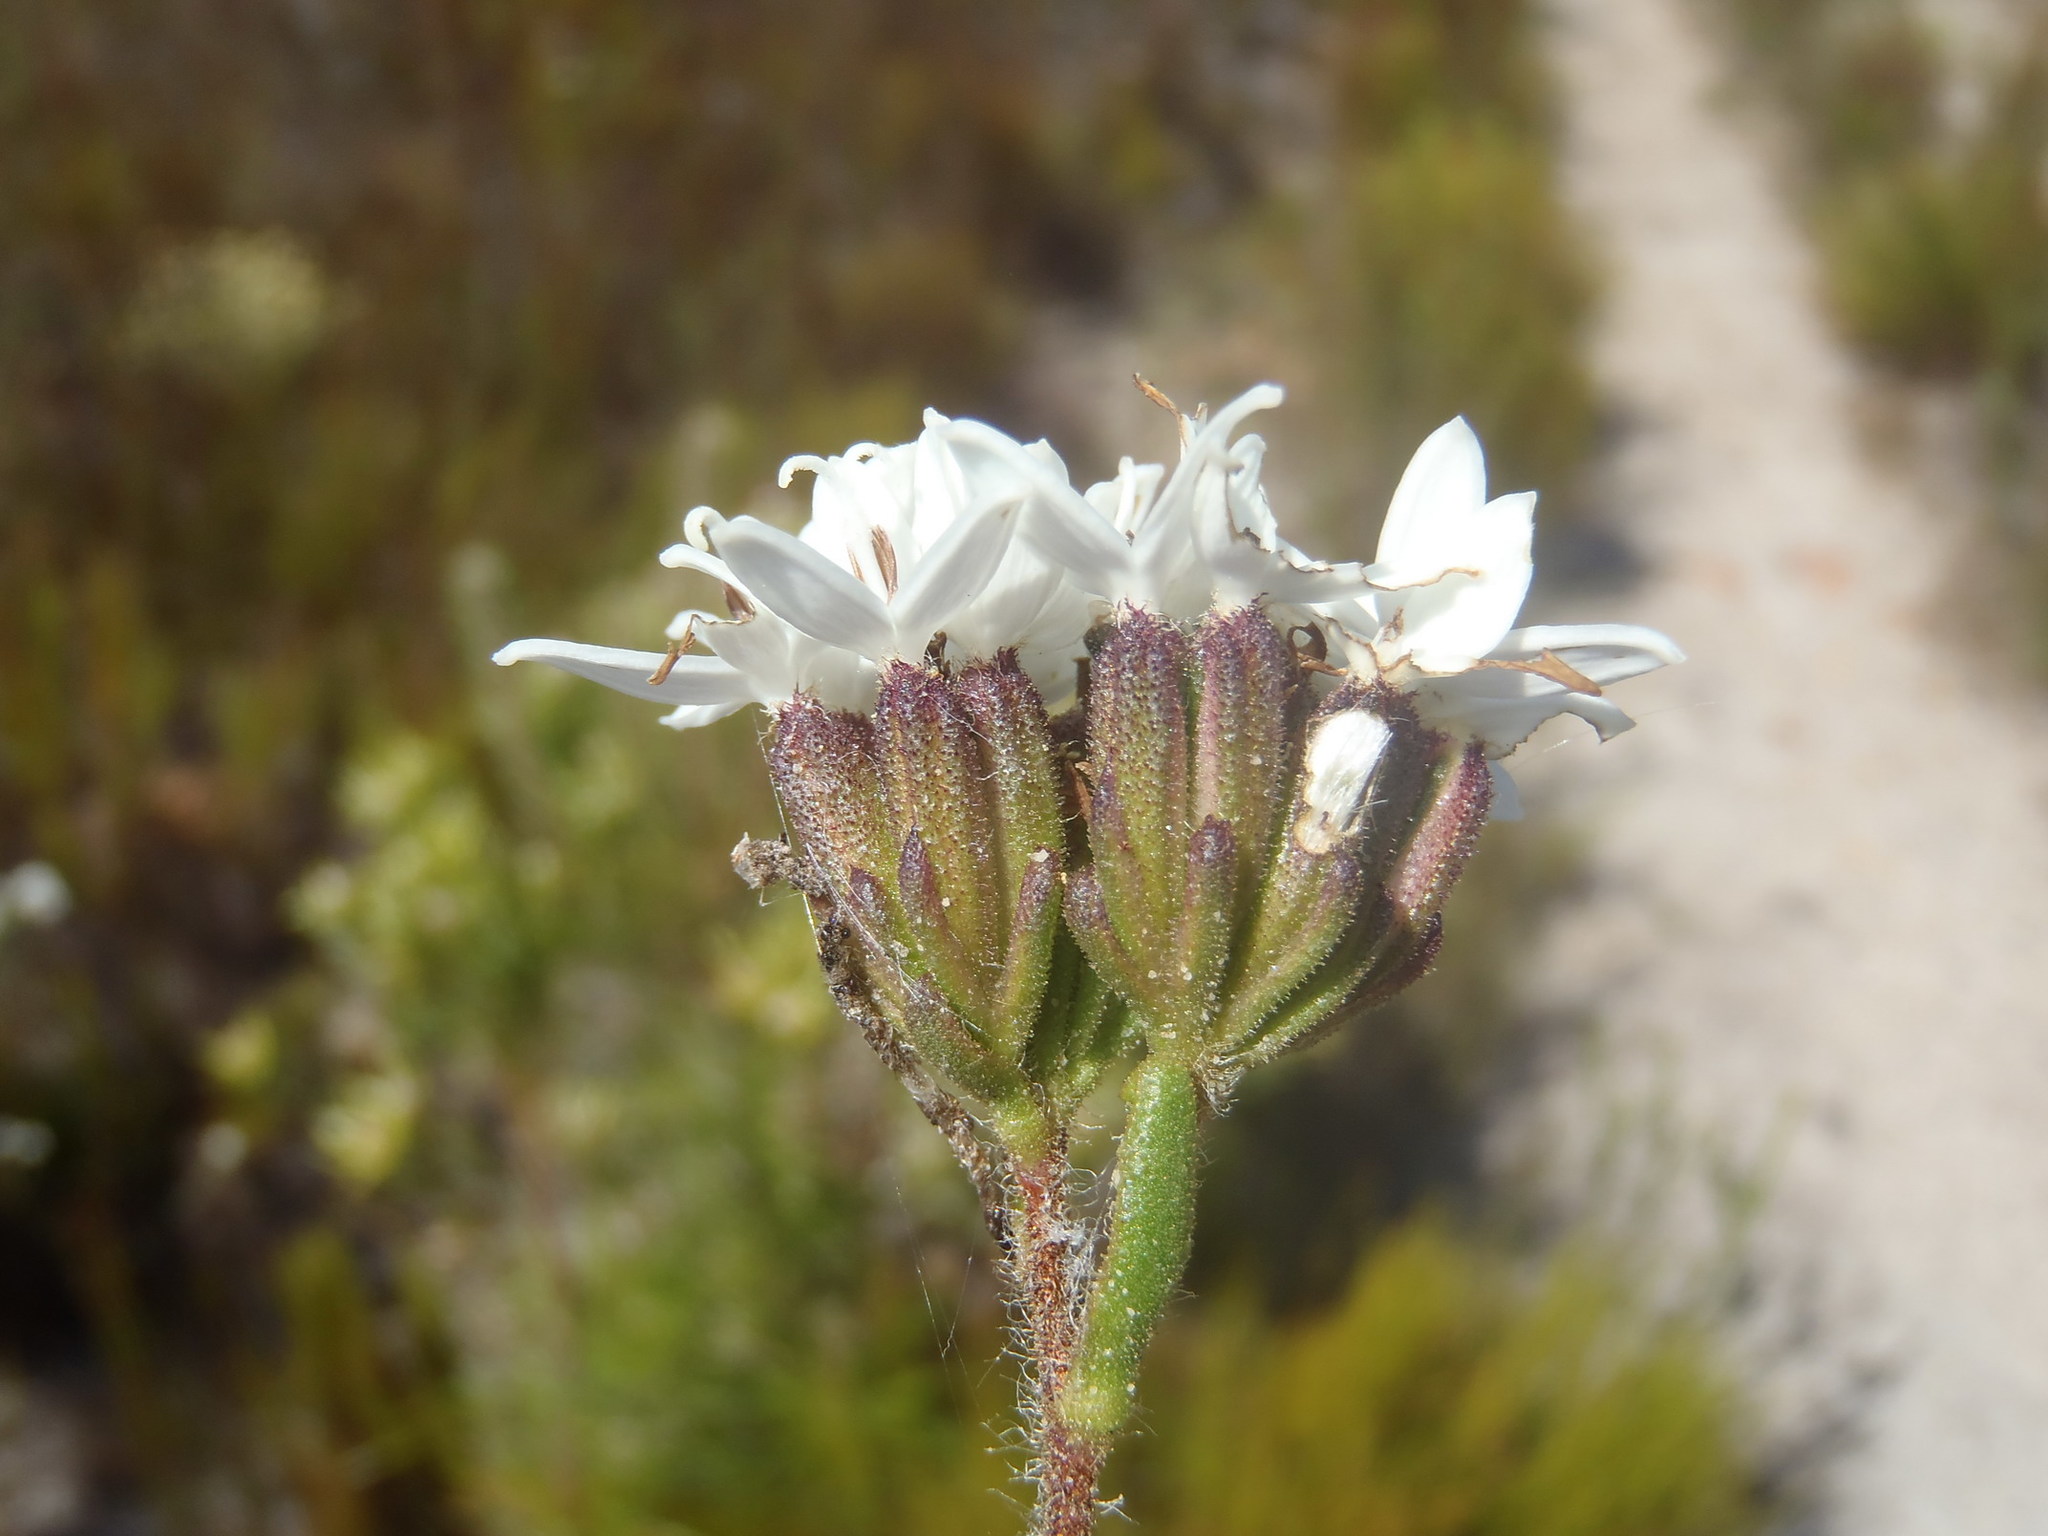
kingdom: Plantae
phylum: Tracheophyta
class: Magnoliopsida
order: Asterales
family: Asteraceae
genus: Corymbium
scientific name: Corymbium villosum
